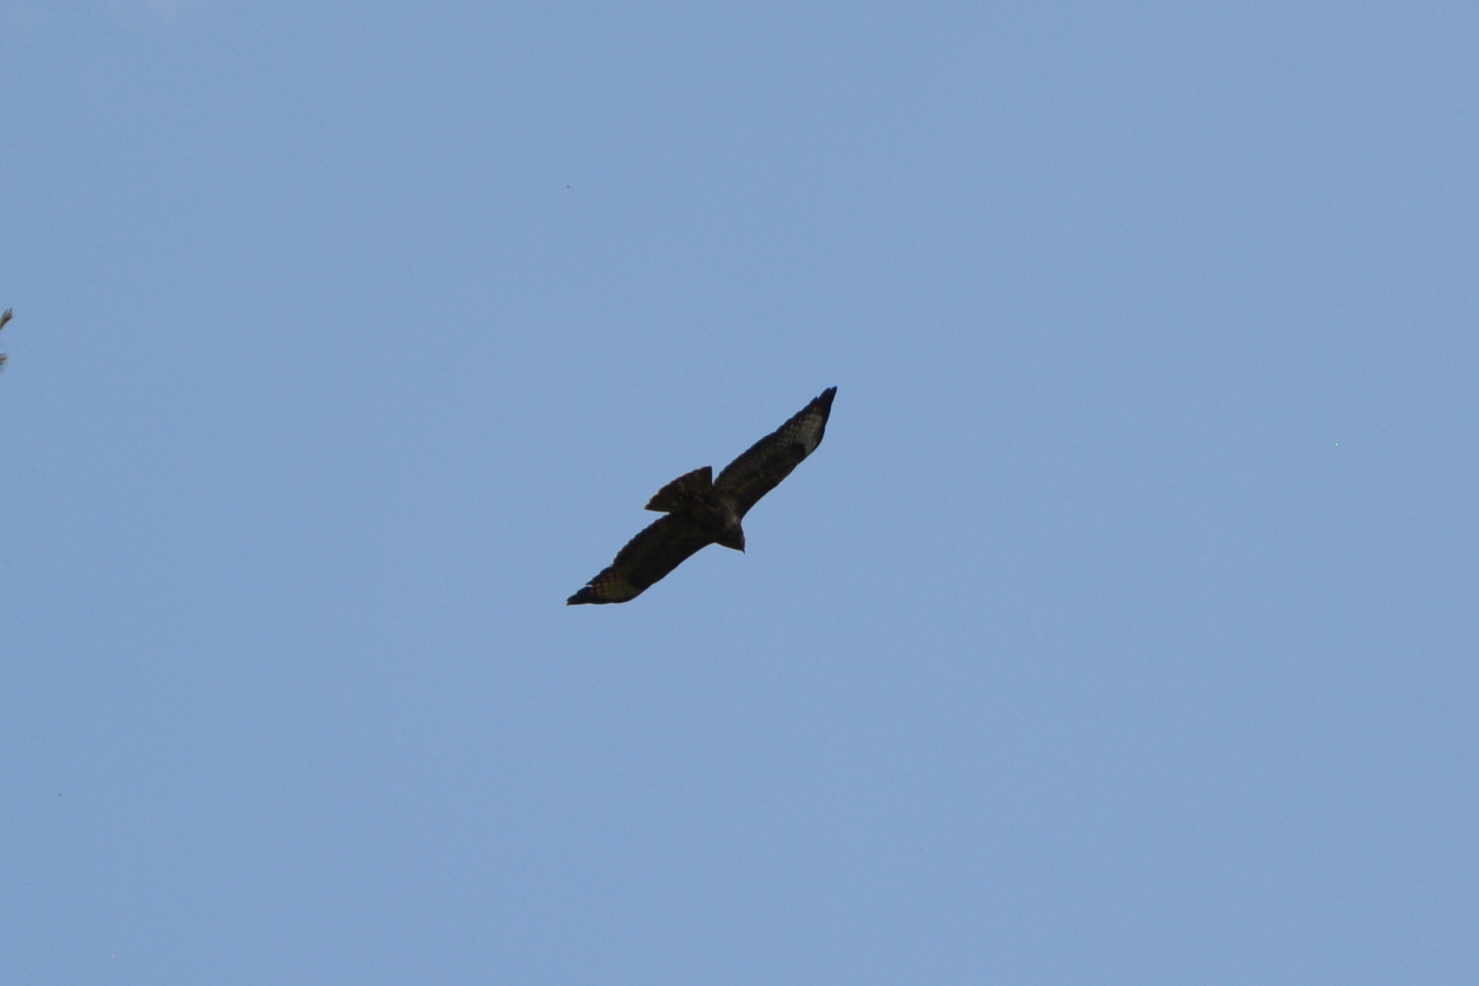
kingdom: Animalia
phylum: Chordata
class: Aves
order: Accipitriformes
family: Accipitridae
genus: Buteo
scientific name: Buteo buteo
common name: Common buzzard
